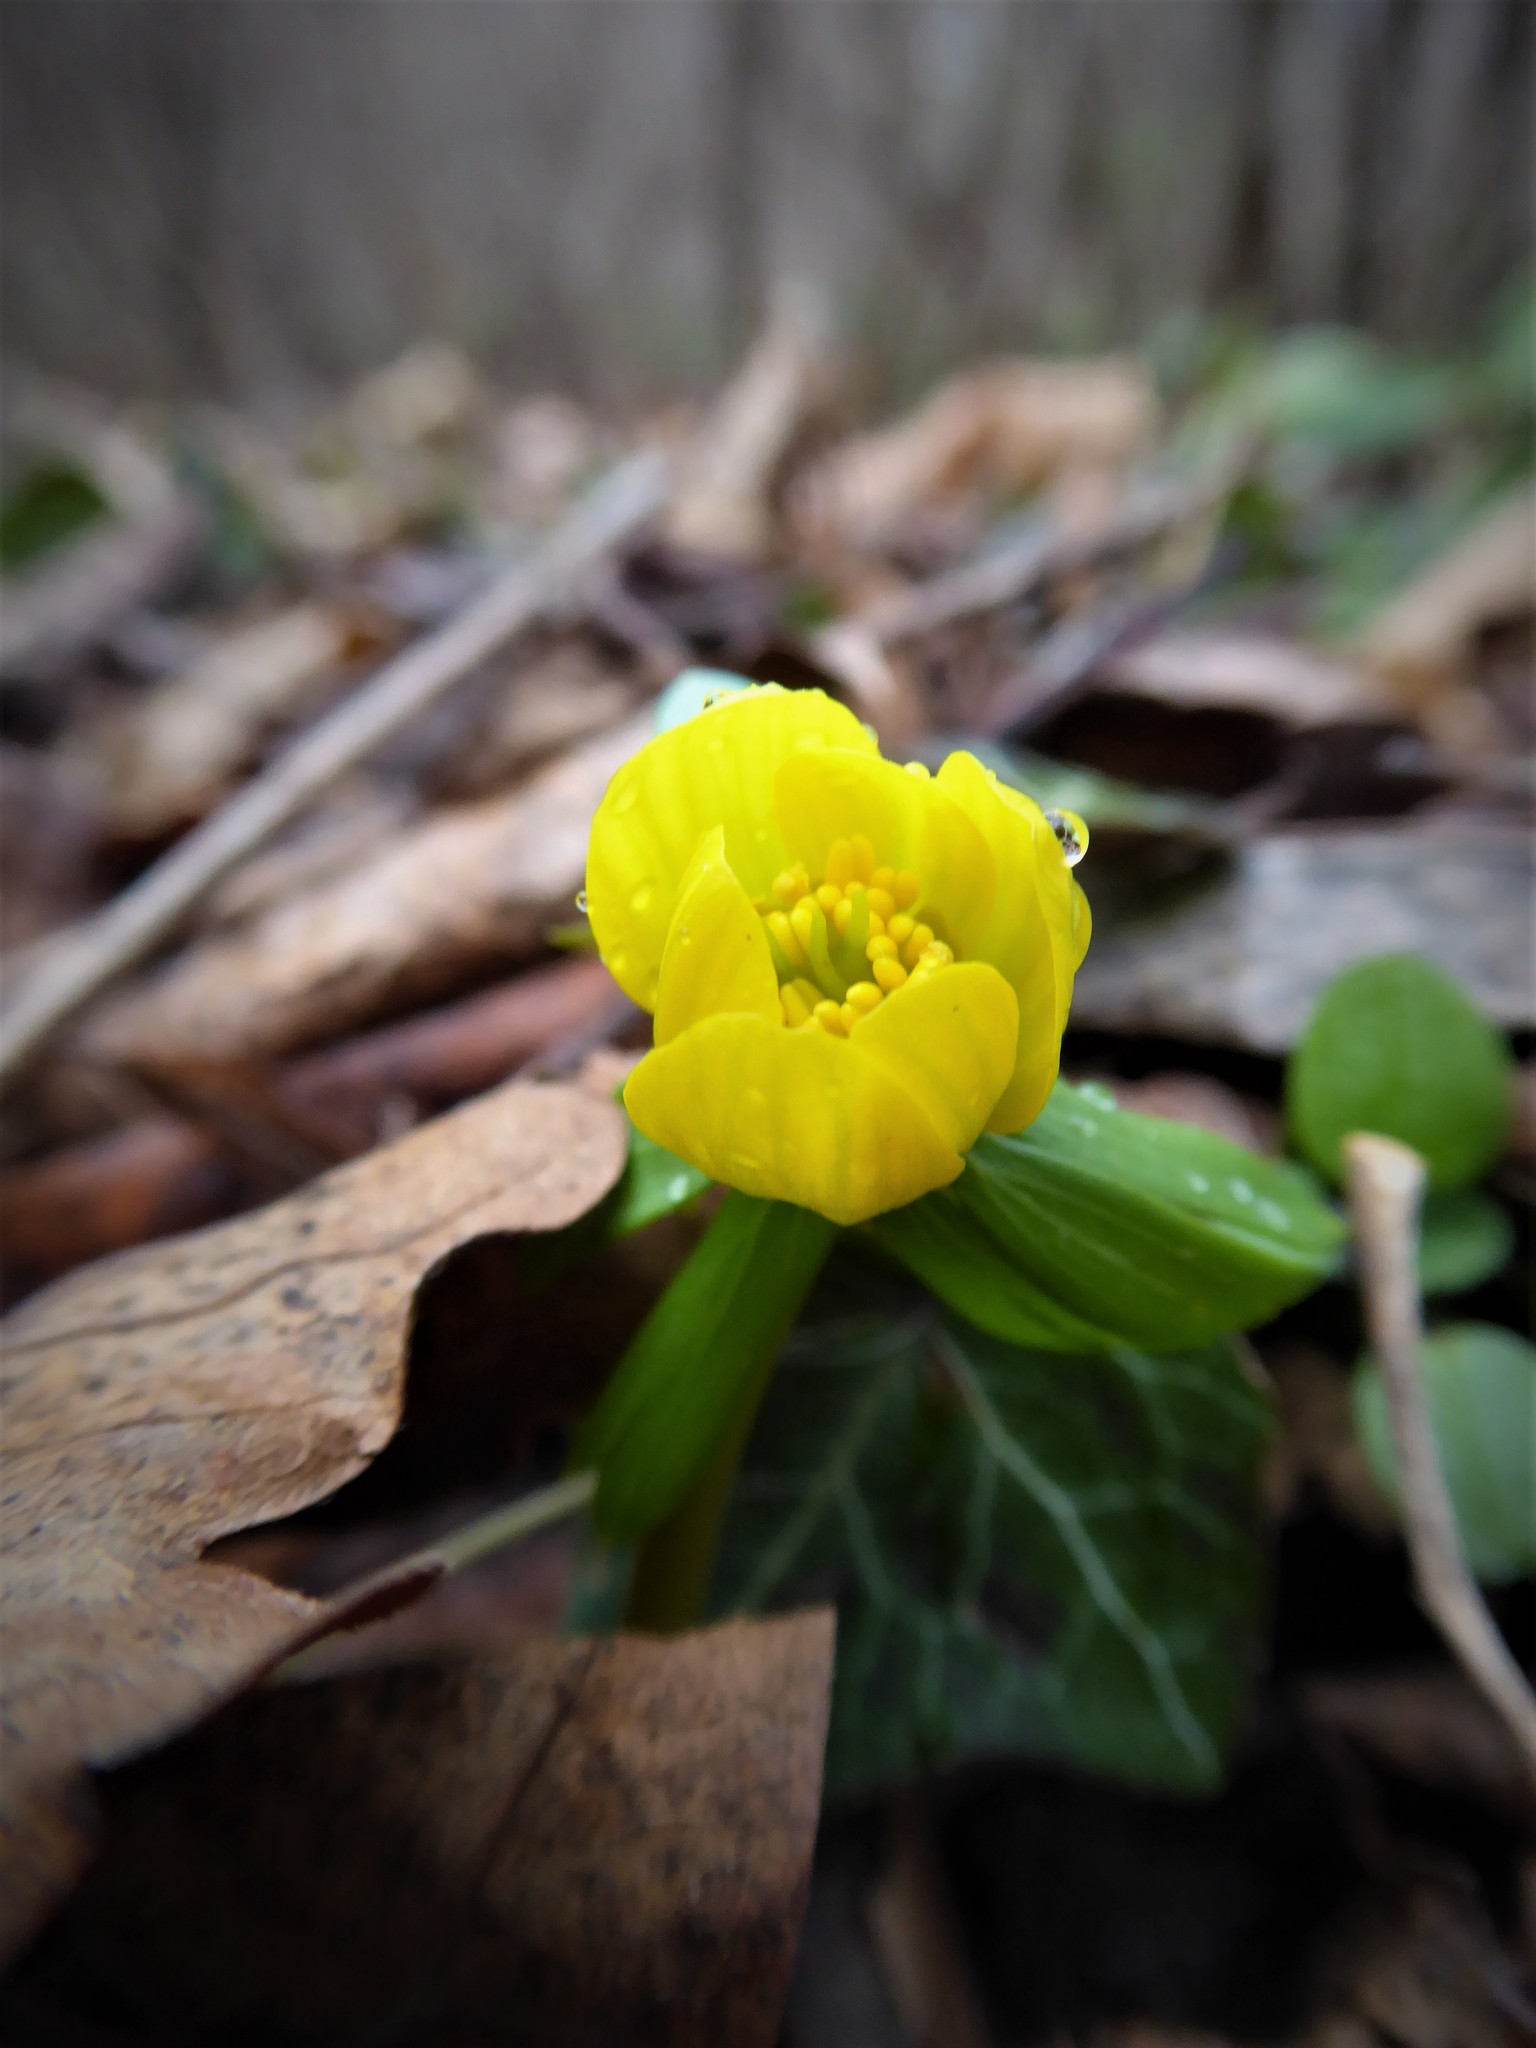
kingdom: Plantae
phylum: Tracheophyta
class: Magnoliopsida
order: Ranunculales
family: Ranunculaceae
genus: Eranthis
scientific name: Eranthis hyemalis
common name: Winter aconite
